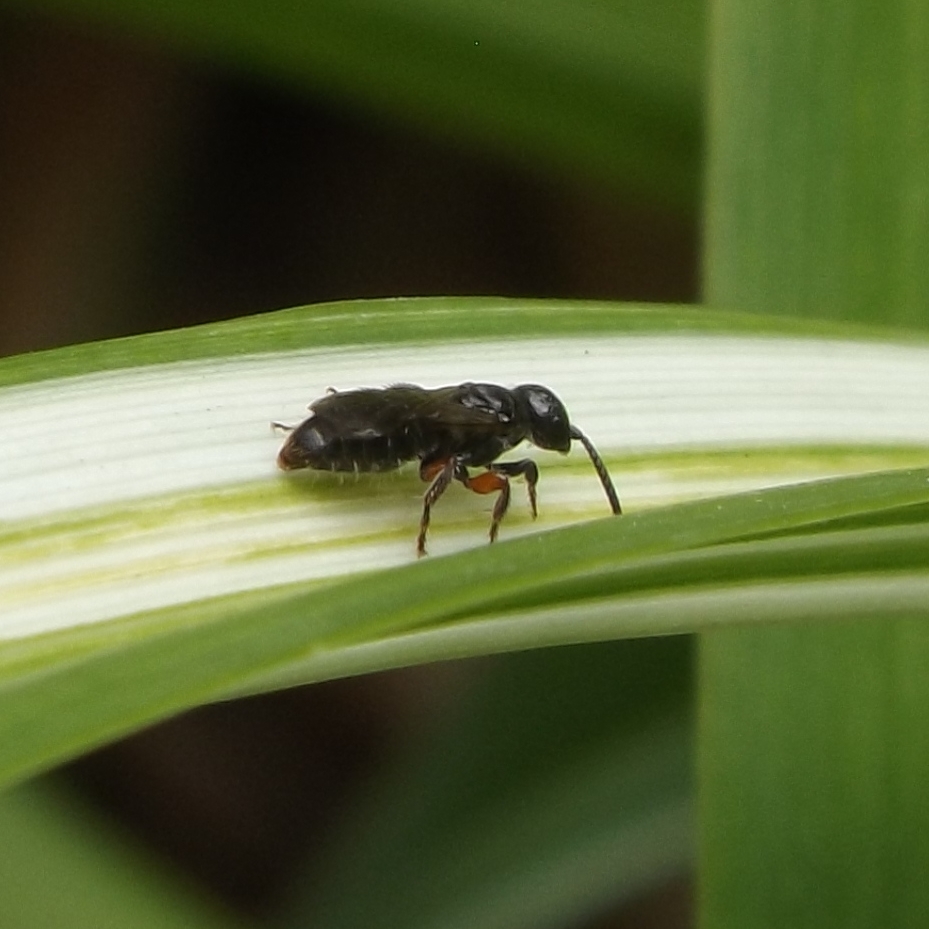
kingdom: Animalia
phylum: Arthropoda
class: Insecta
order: Hymenoptera
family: Tiphiidae
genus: Tiphia
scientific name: Tiphia femorata
